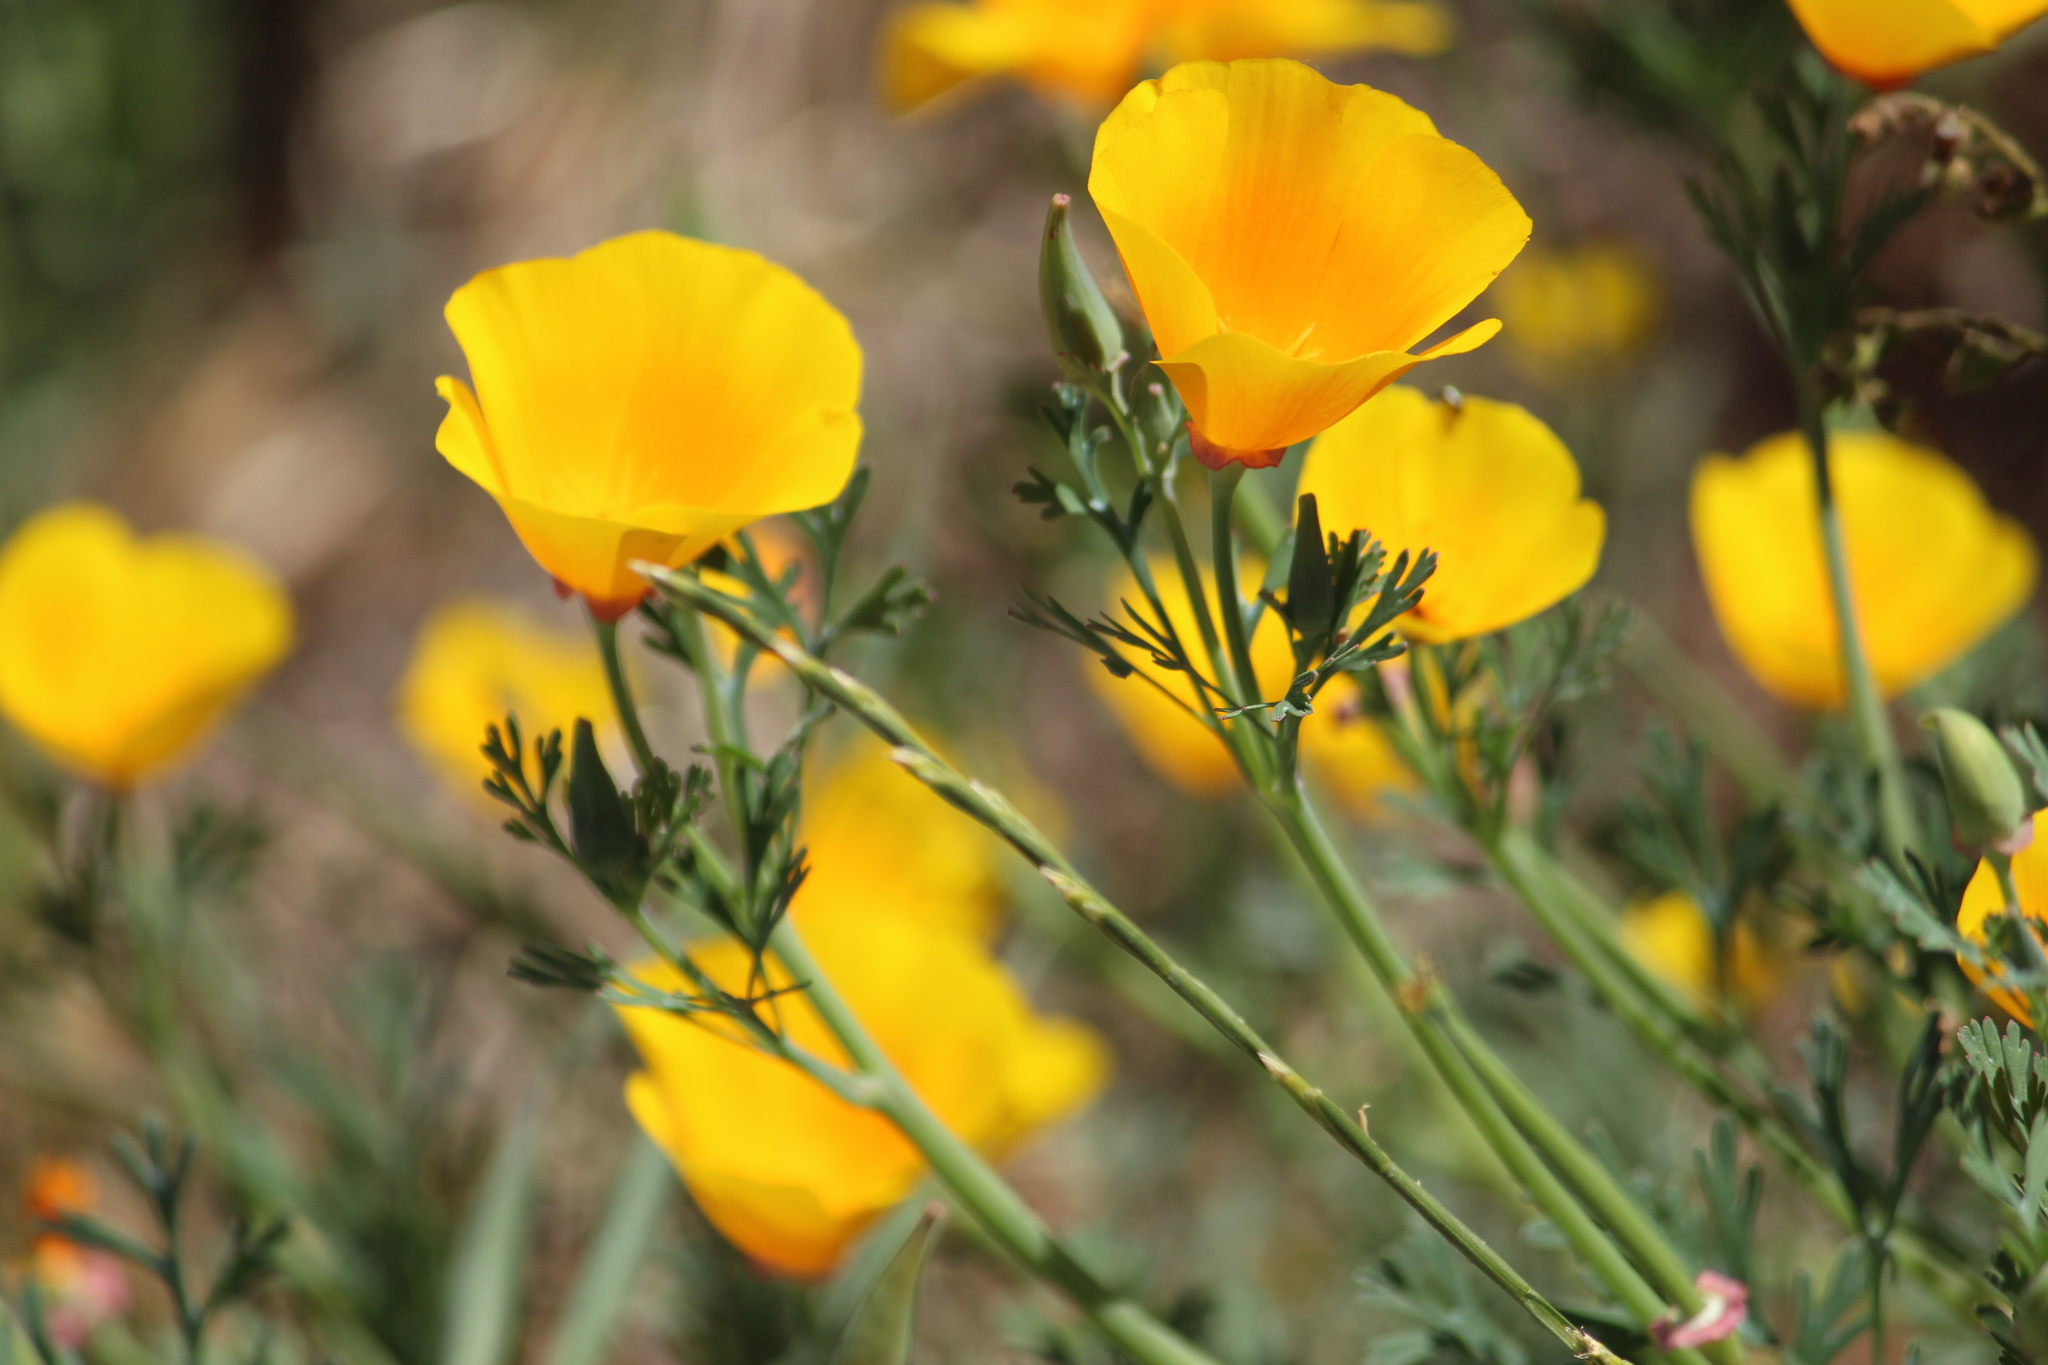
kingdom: Plantae
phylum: Tracheophyta
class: Magnoliopsida
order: Ranunculales
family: Papaveraceae
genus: Eschscholzia
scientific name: Eschscholzia californica
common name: California poppy
